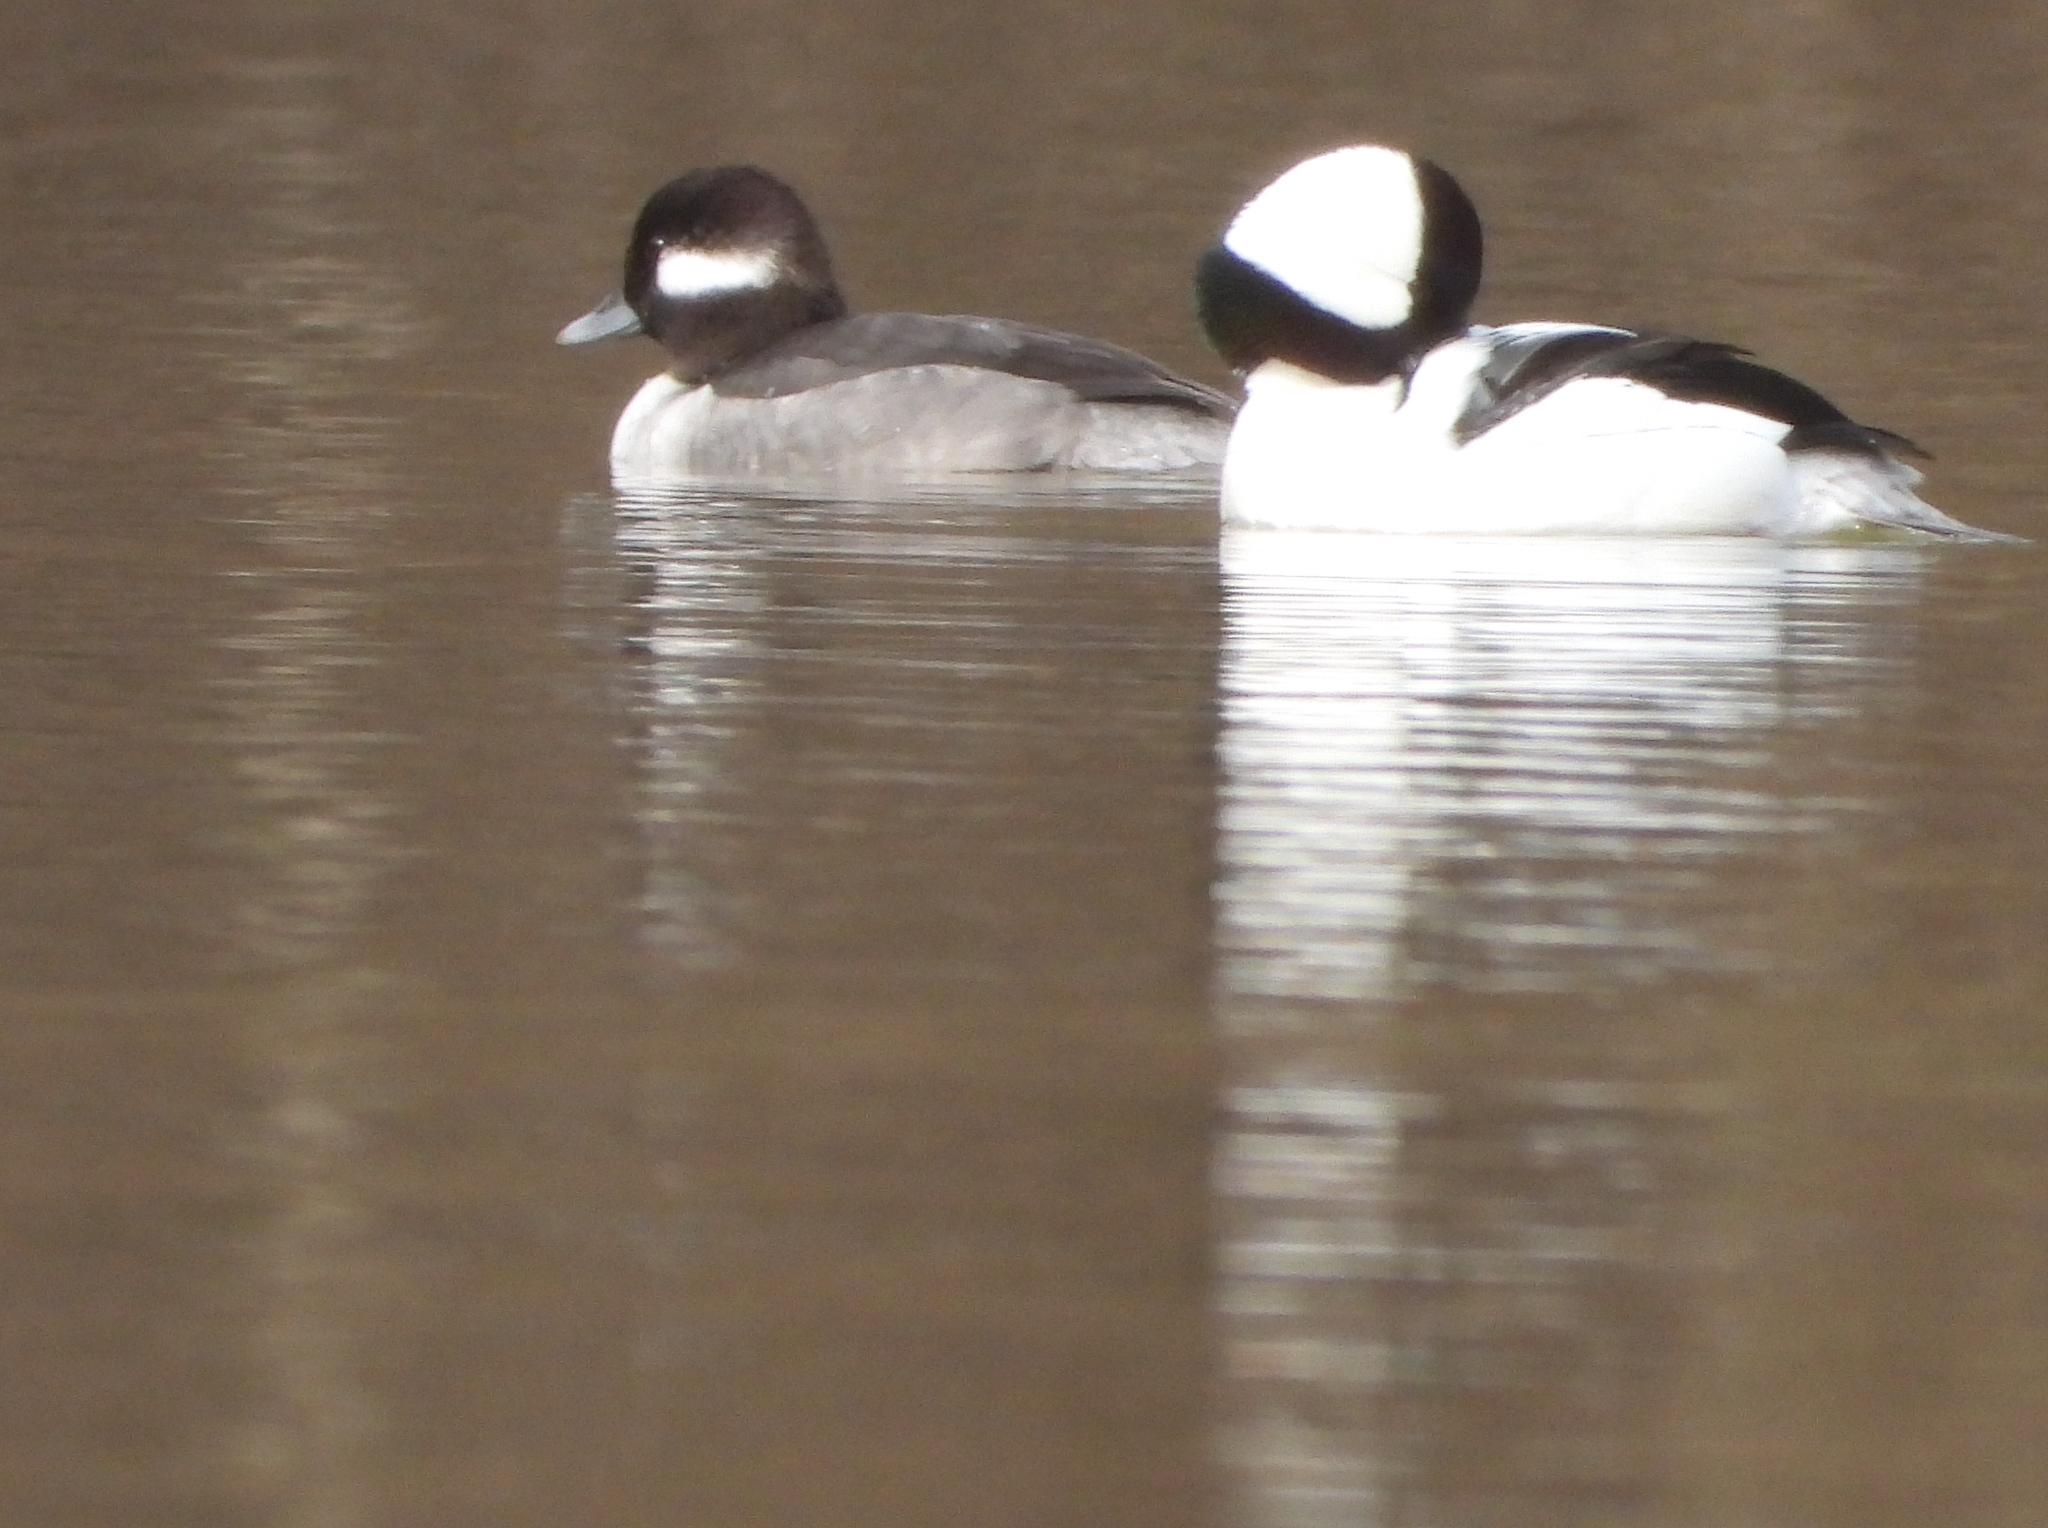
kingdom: Animalia
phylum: Chordata
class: Aves
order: Anseriformes
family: Anatidae
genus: Bucephala
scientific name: Bucephala albeola
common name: Bufflehead
